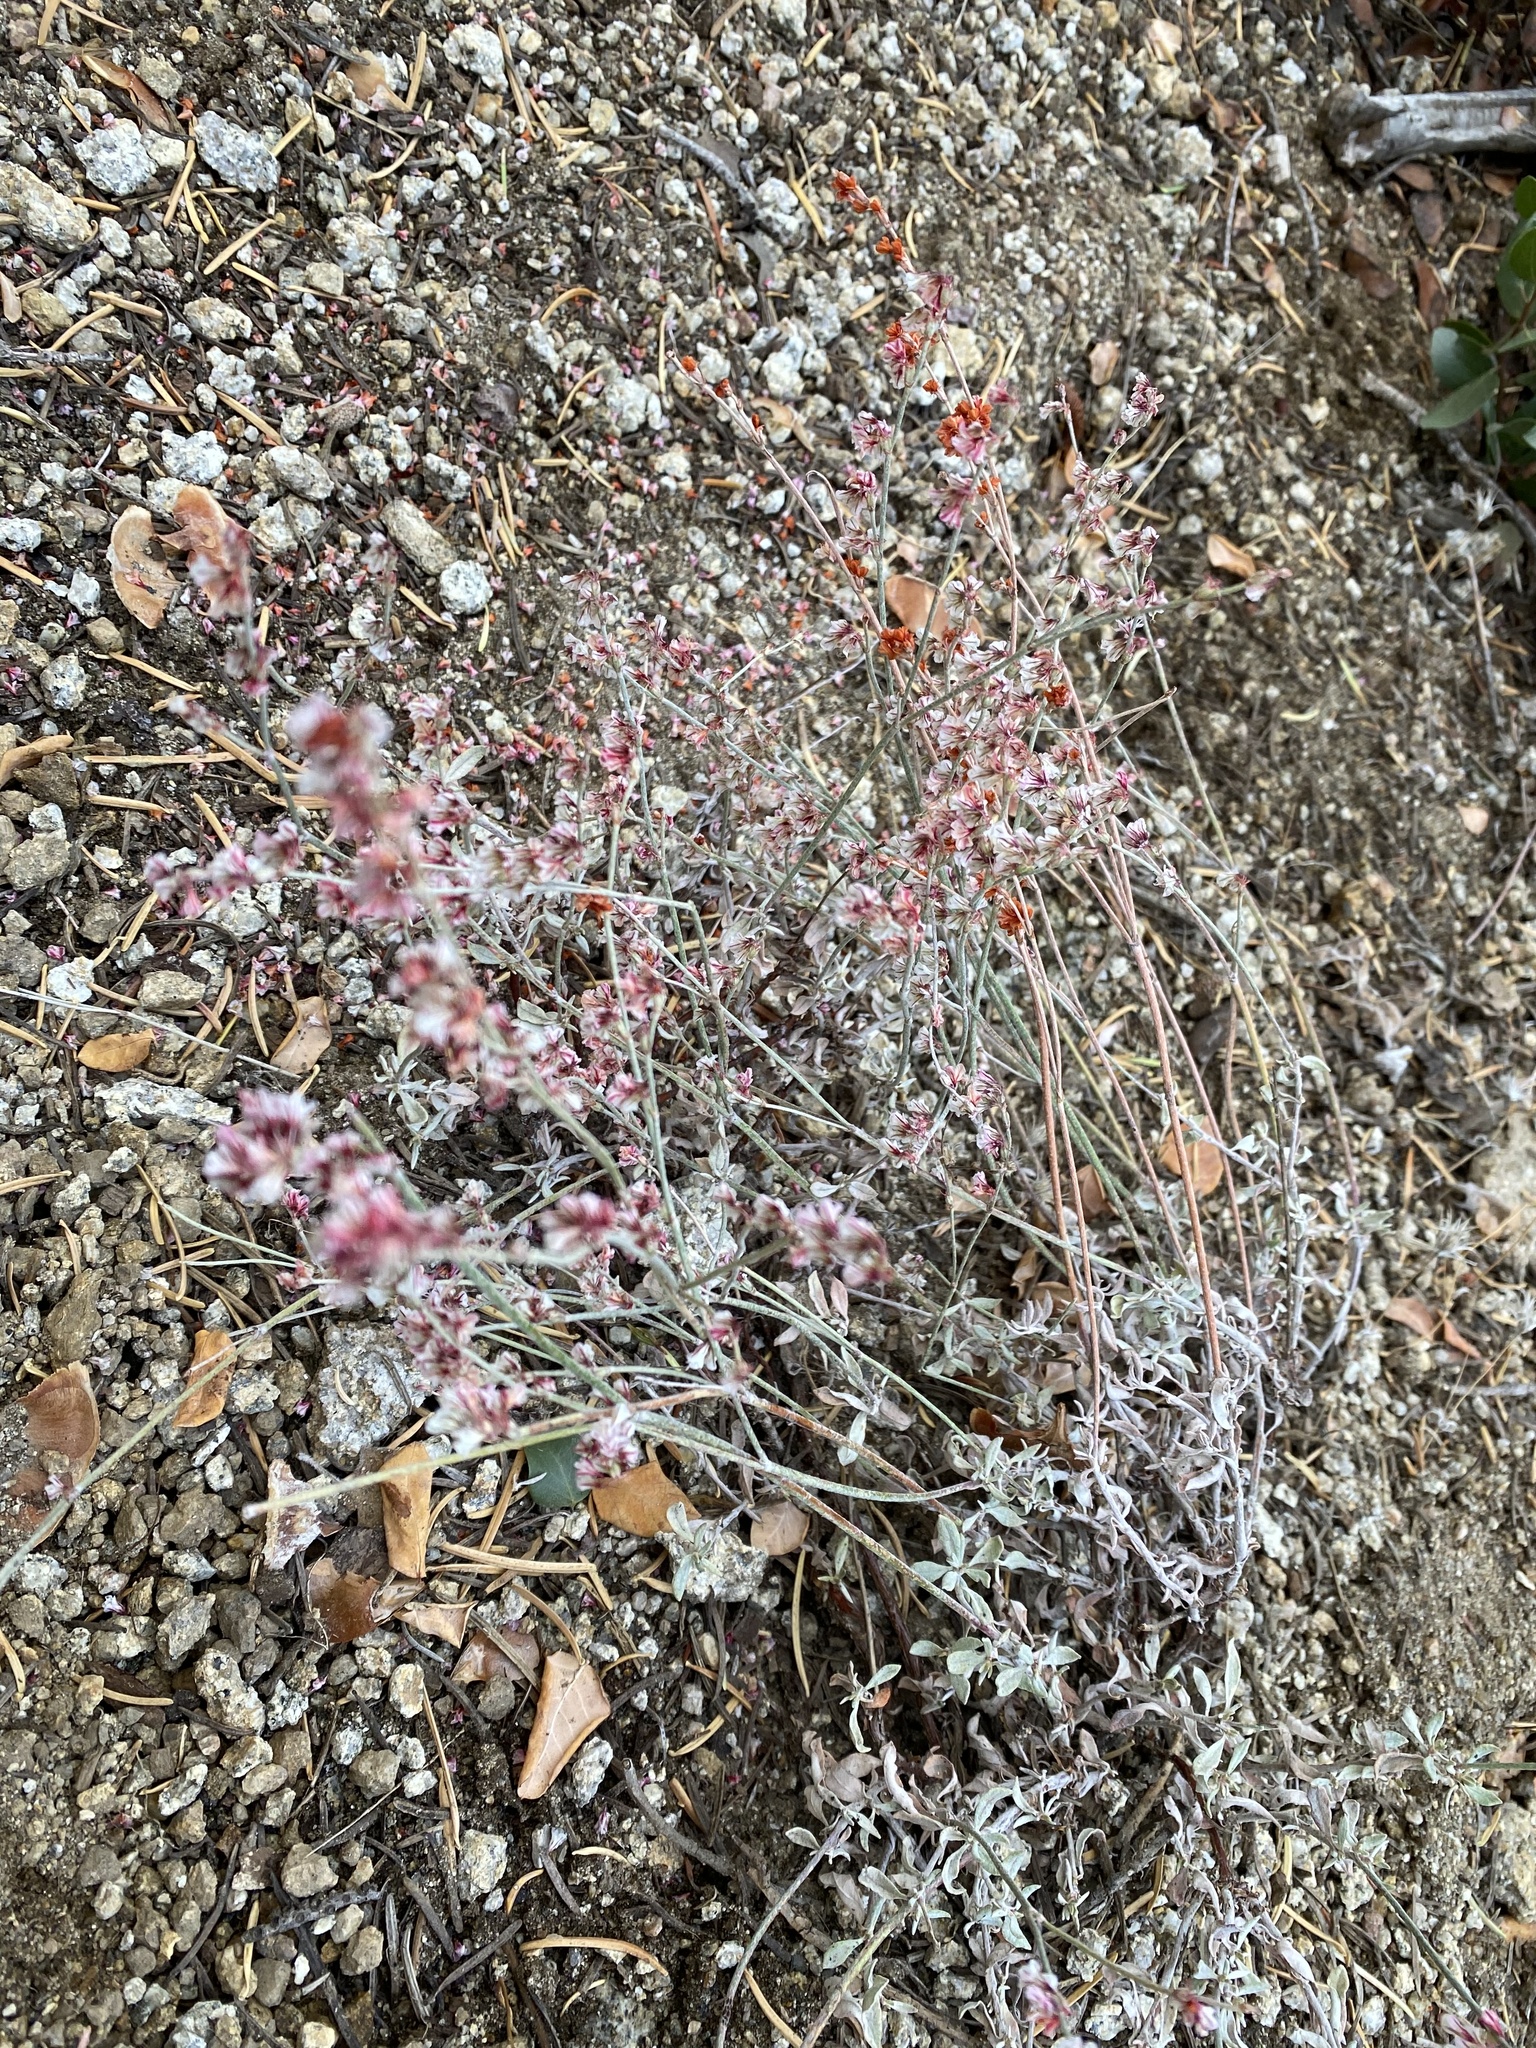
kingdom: Plantae
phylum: Tracheophyta
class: Magnoliopsida
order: Caryophyllales
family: Polygonaceae
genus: Eriogonum
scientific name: Eriogonum wrightii
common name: Bastard-sage
